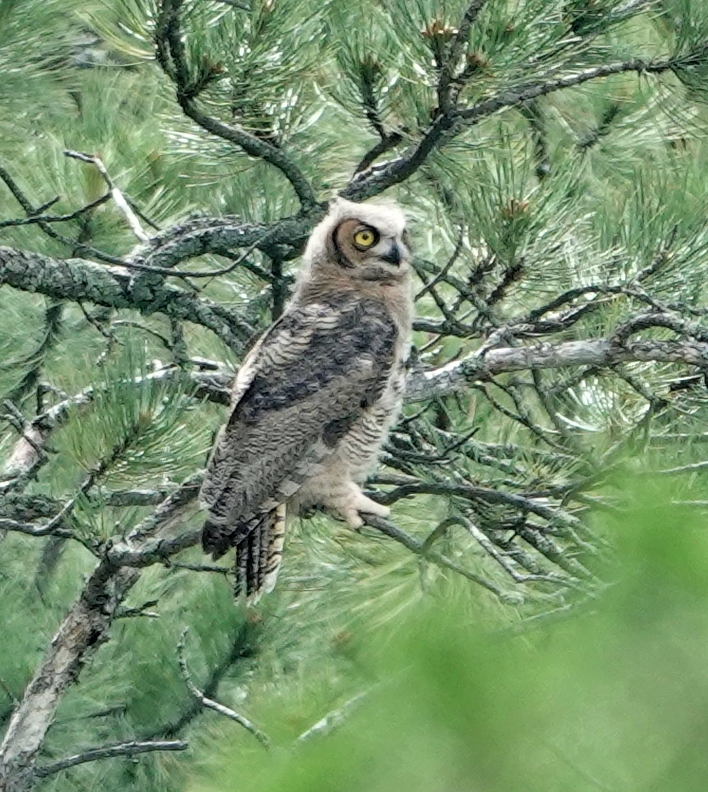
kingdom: Animalia
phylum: Chordata
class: Aves
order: Strigiformes
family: Strigidae
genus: Bubo
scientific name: Bubo virginianus
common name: Great horned owl
